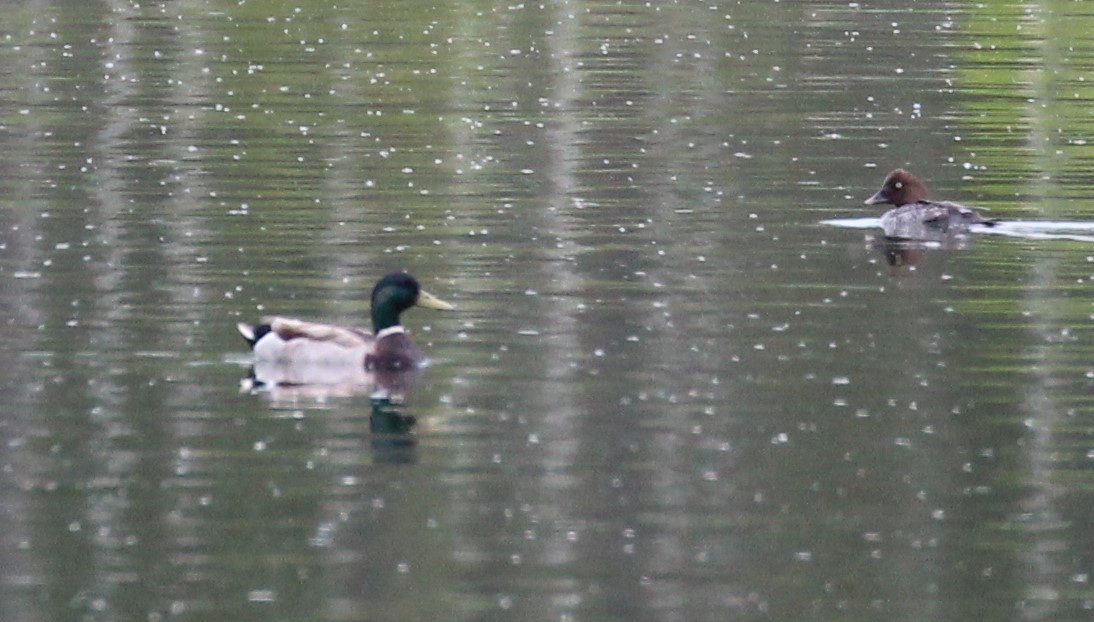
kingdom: Animalia
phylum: Chordata
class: Aves
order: Anseriformes
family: Anatidae
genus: Anas
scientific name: Anas platyrhynchos
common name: Mallard
